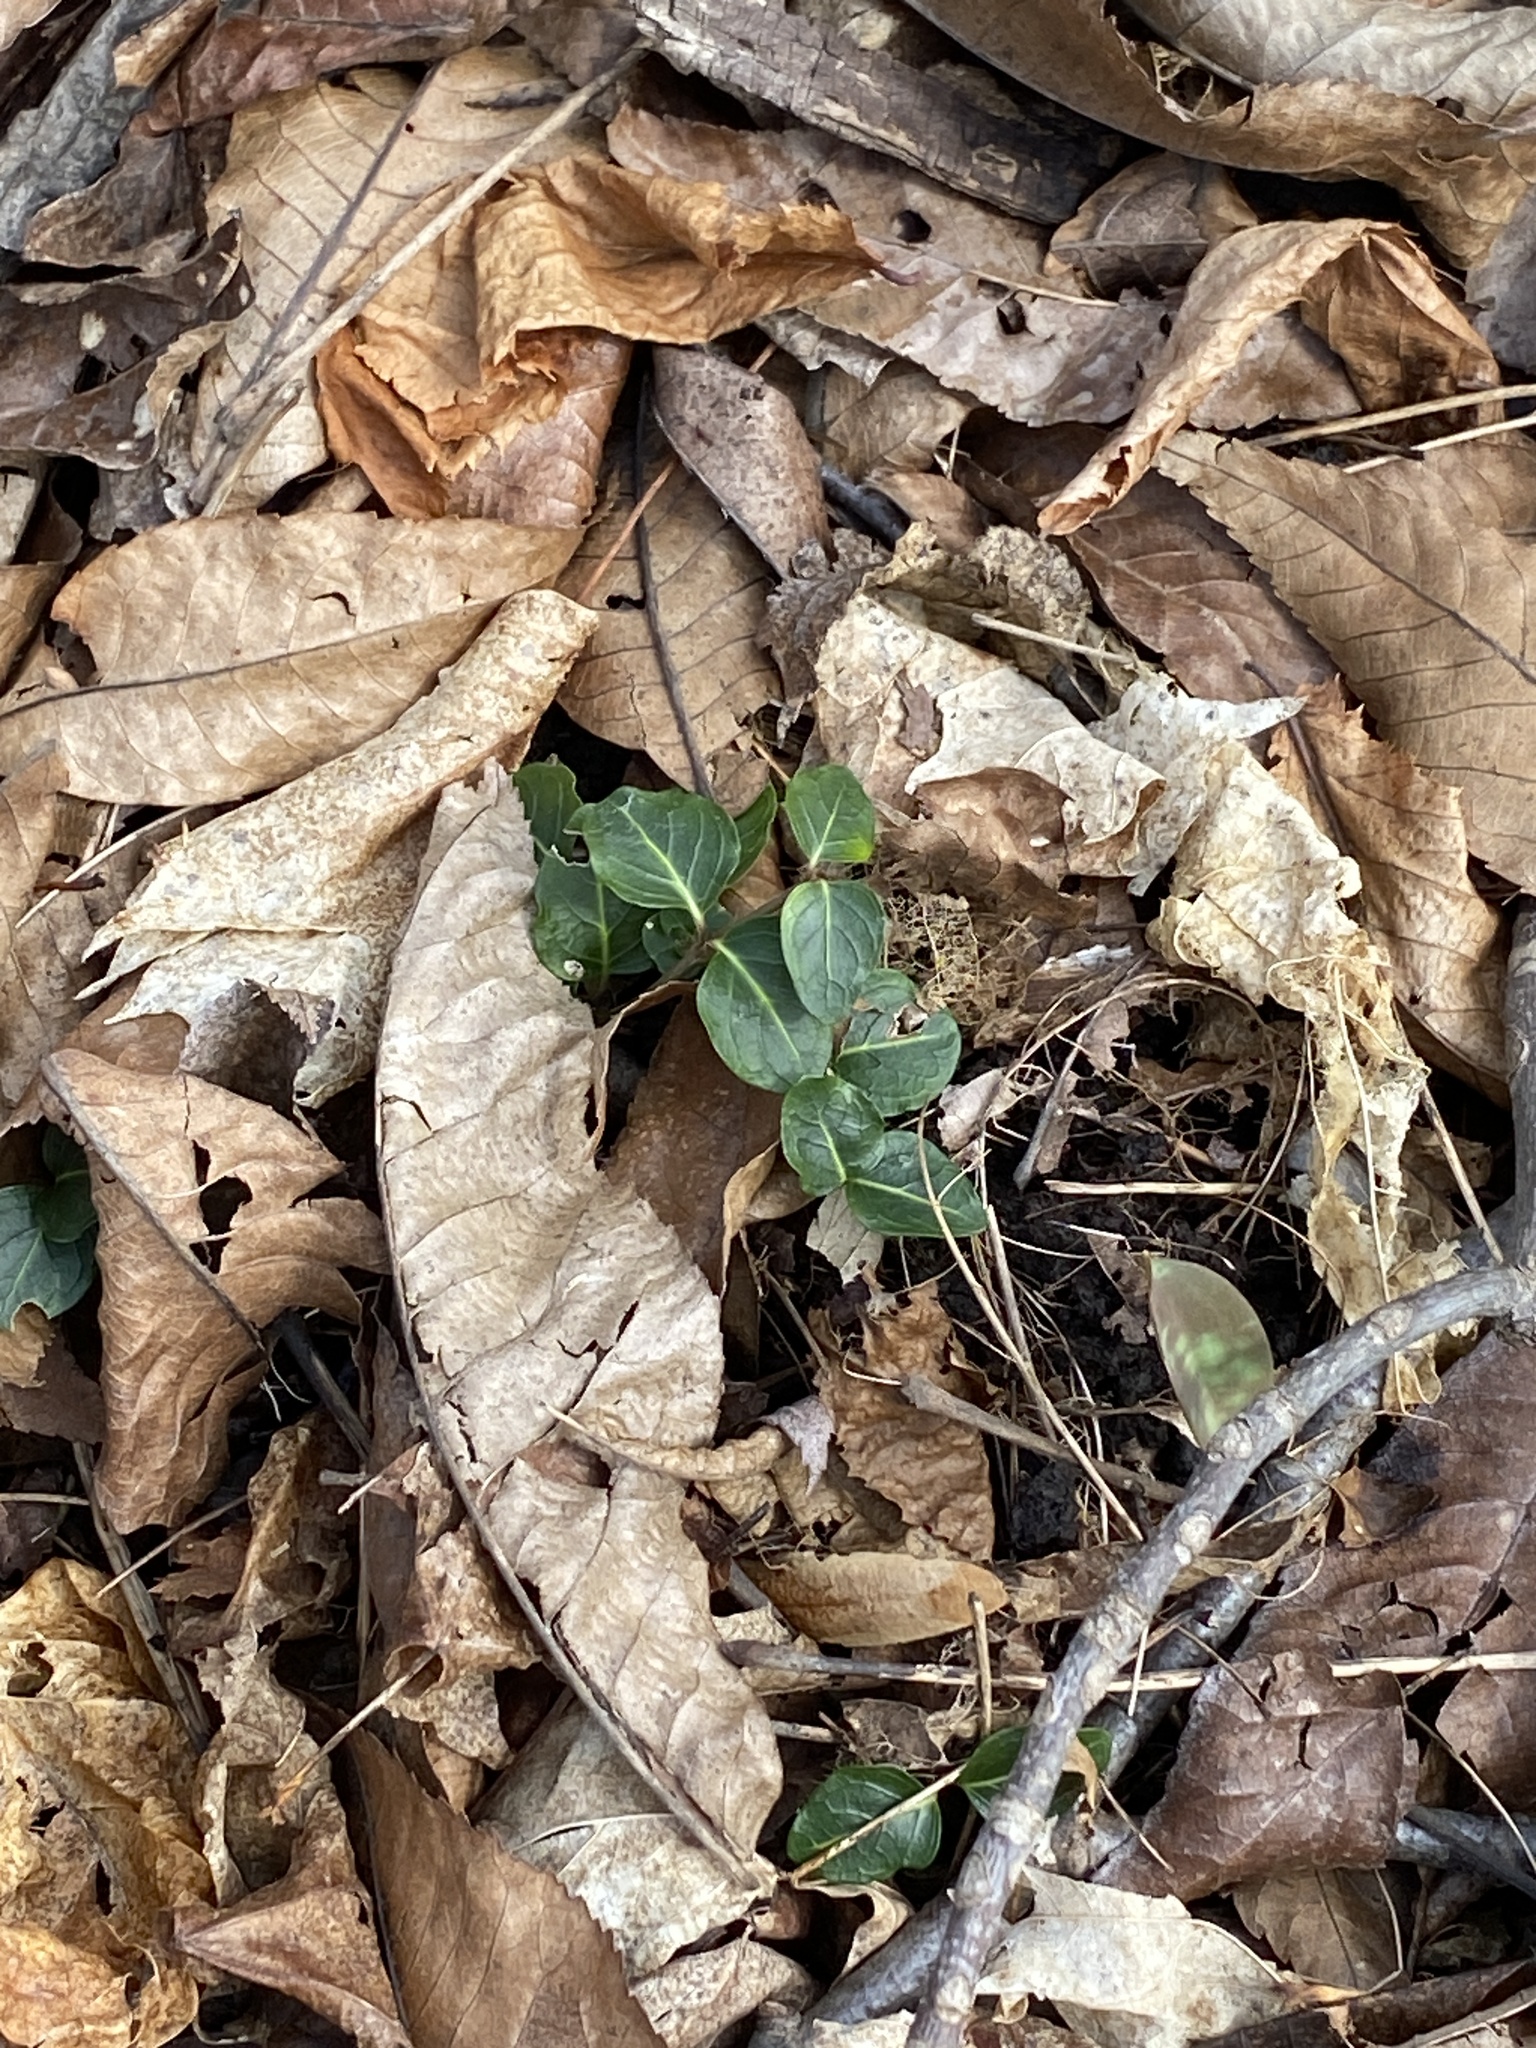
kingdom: Plantae
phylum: Tracheophyta
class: Magnoliopsida
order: Gentianales
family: Rubiaceae
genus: Mitchella
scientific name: Mitchella repens
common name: Partridge-berry
